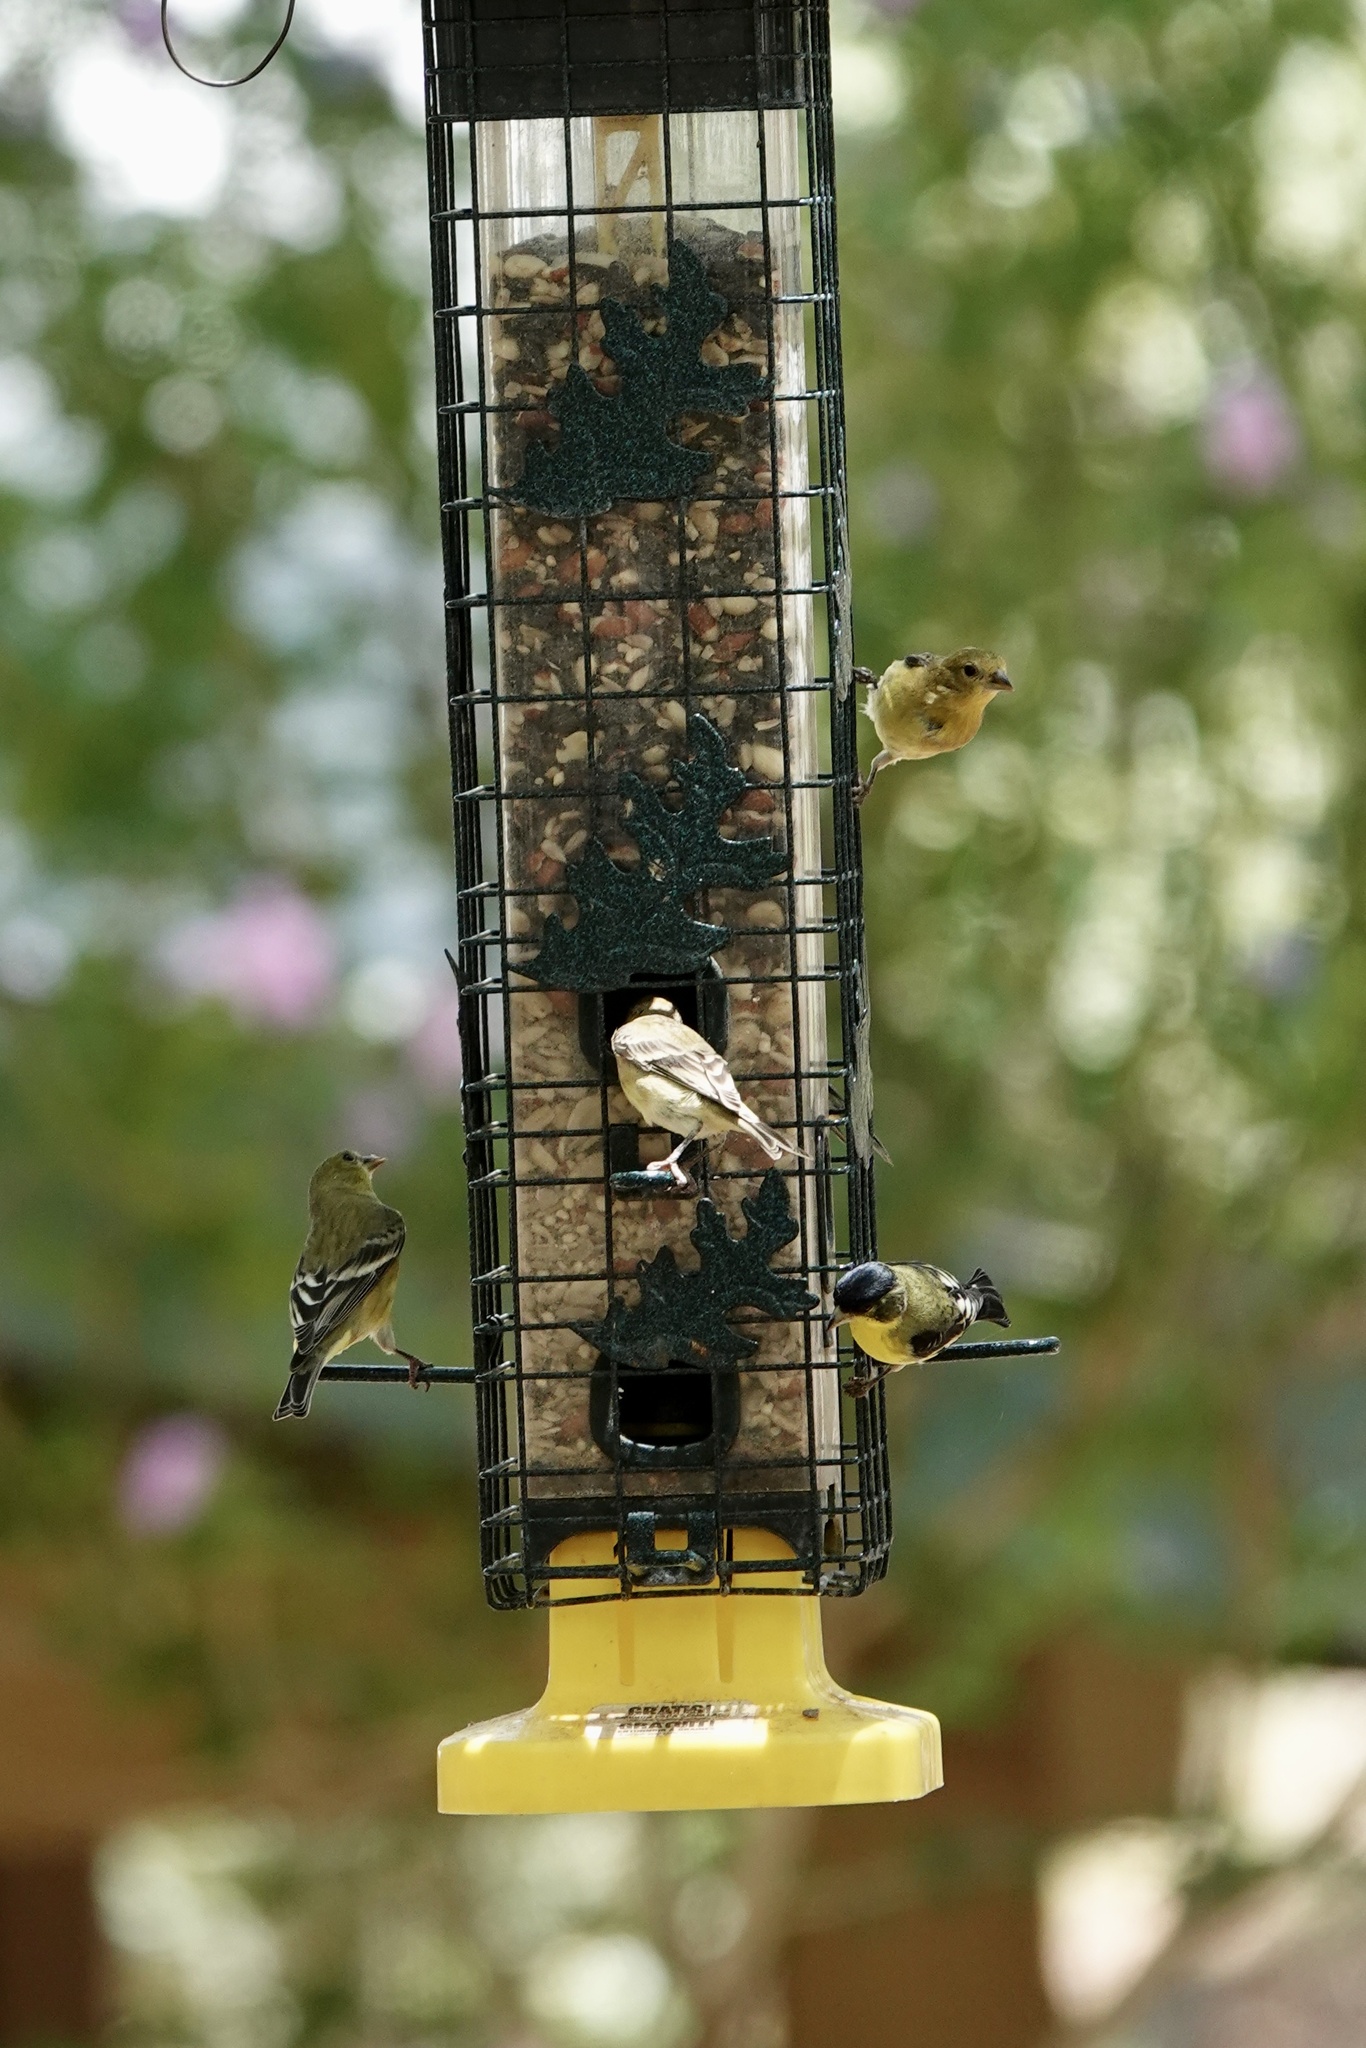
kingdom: Animalia
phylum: Chordata
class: Aves
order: Passeriformes
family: Fringillidae
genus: Spinus
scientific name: Spinus psaltria
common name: Lesser goldfinch
